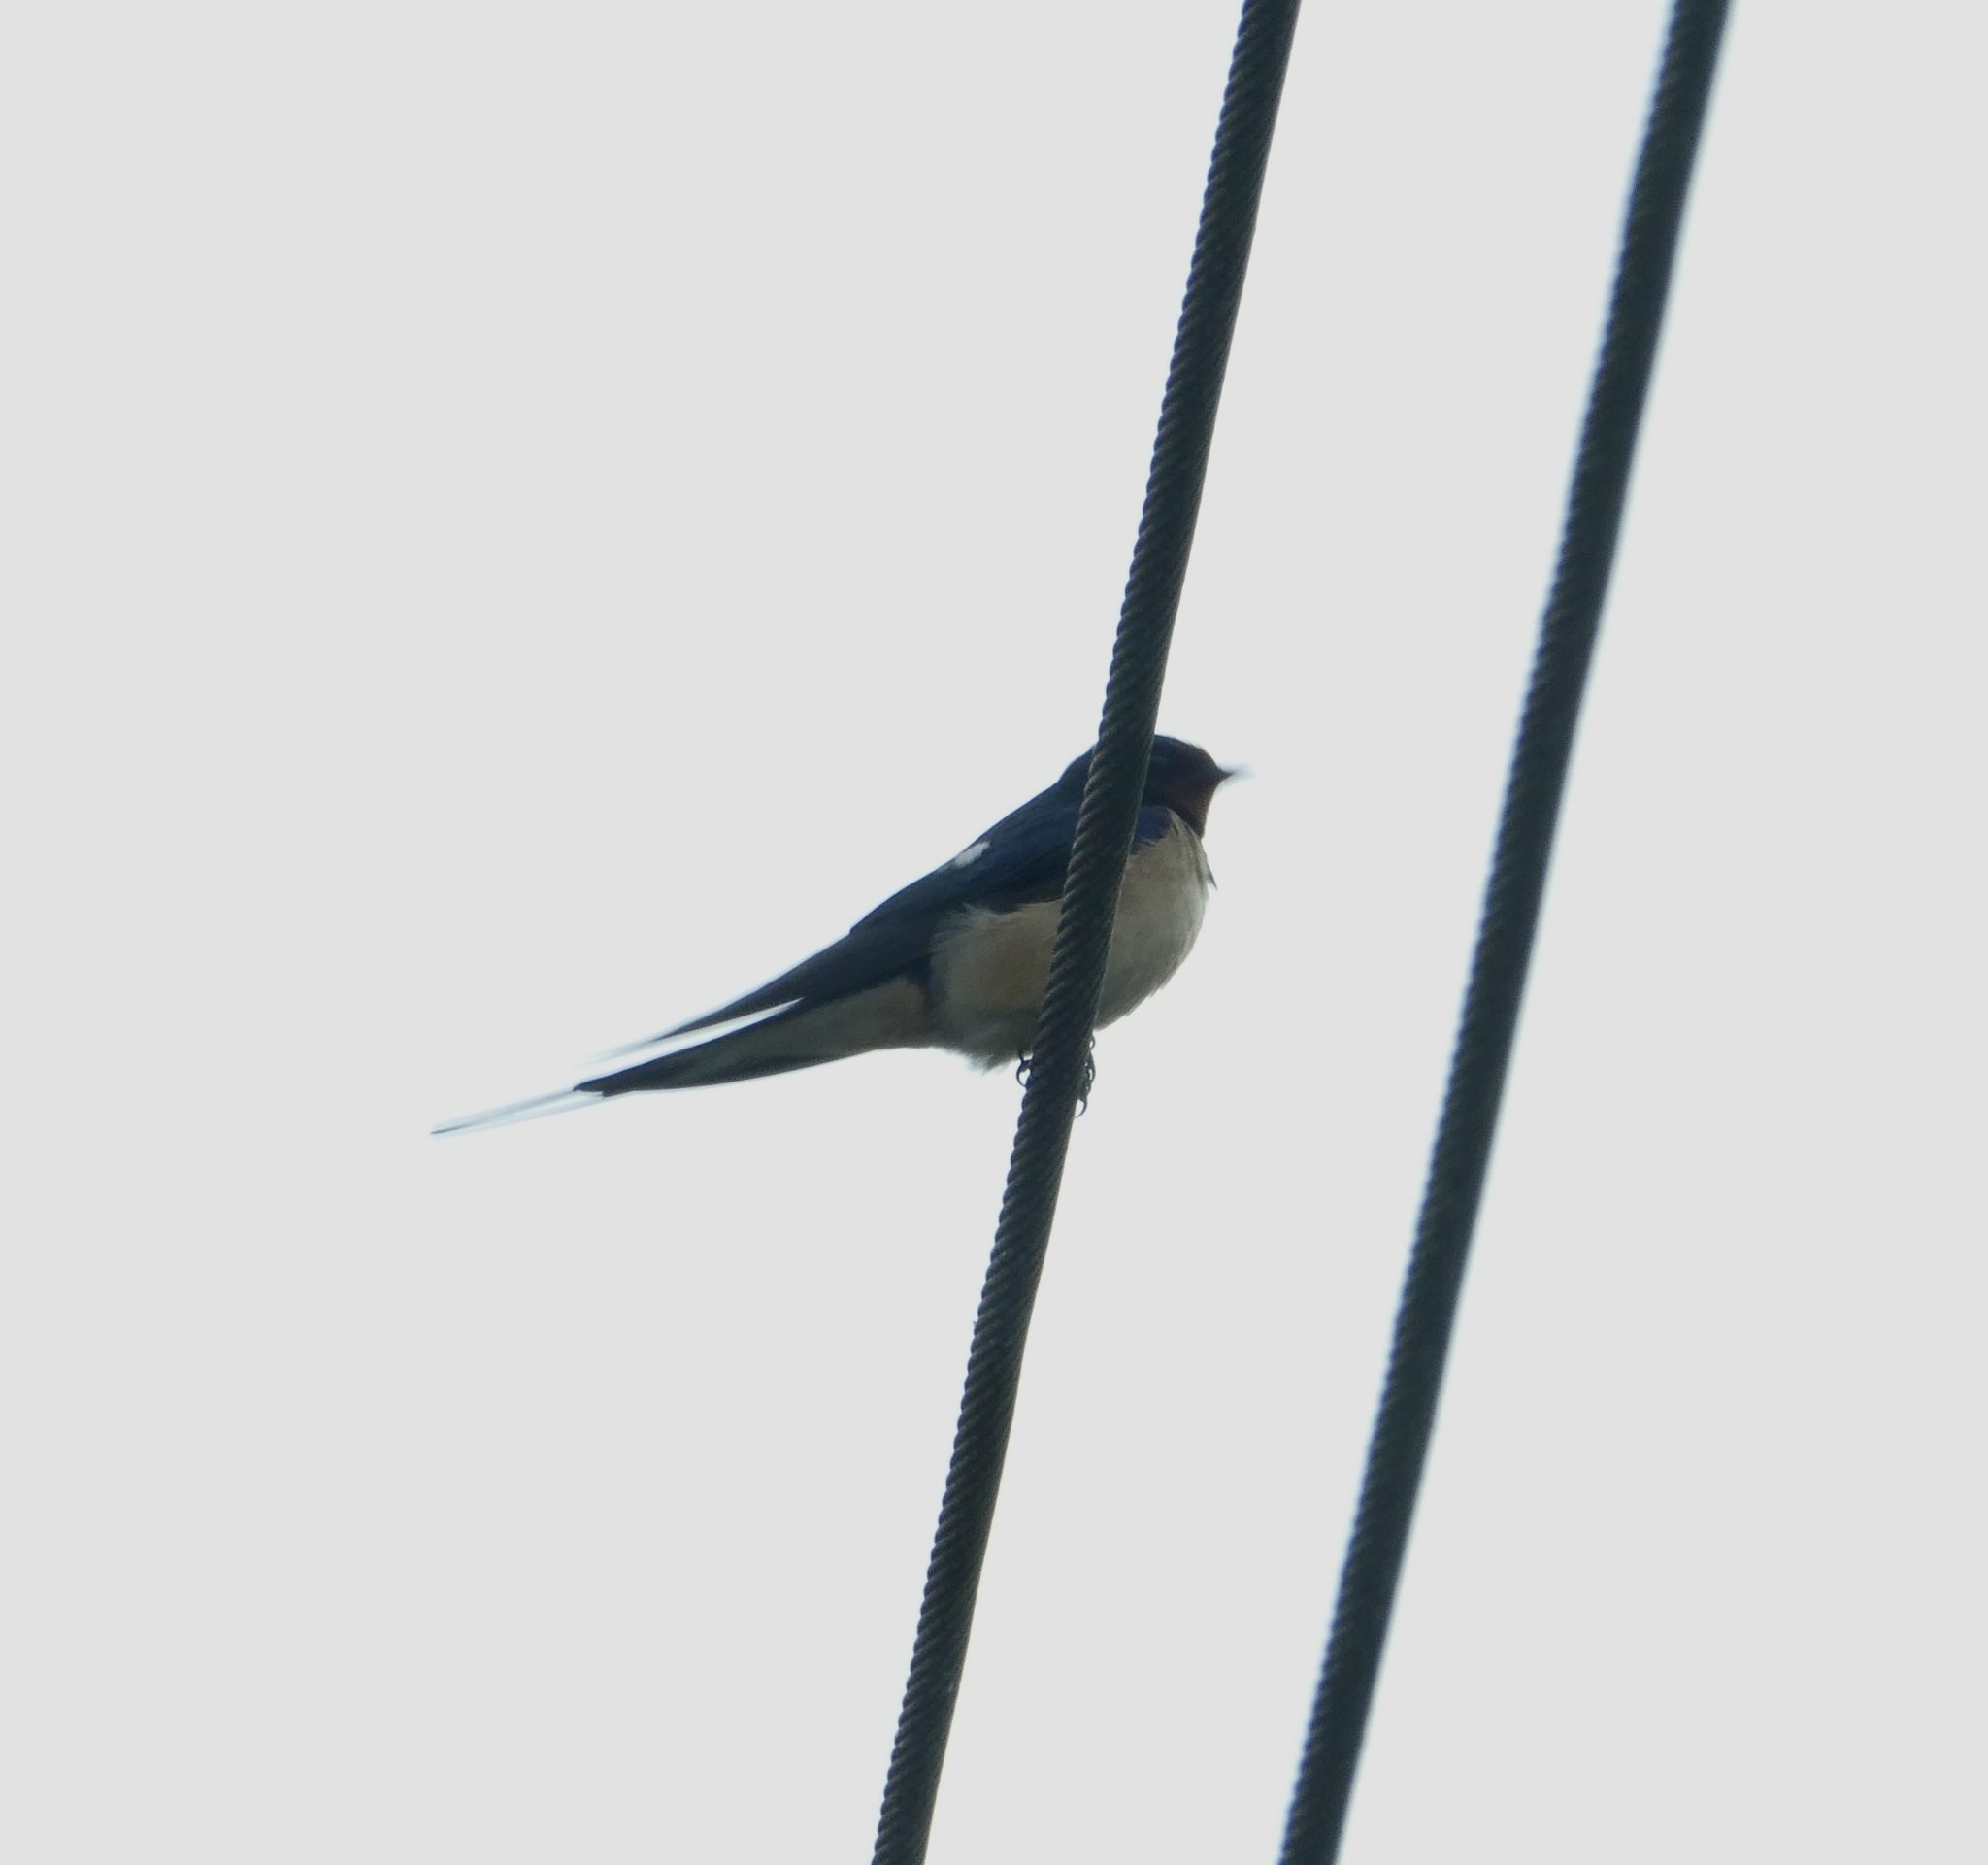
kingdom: Animalia
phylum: Chordata
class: Aves
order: Passeriformes
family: Hirundinidae
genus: Hirundo
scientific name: Hirundo rustica
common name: Barn swallow
